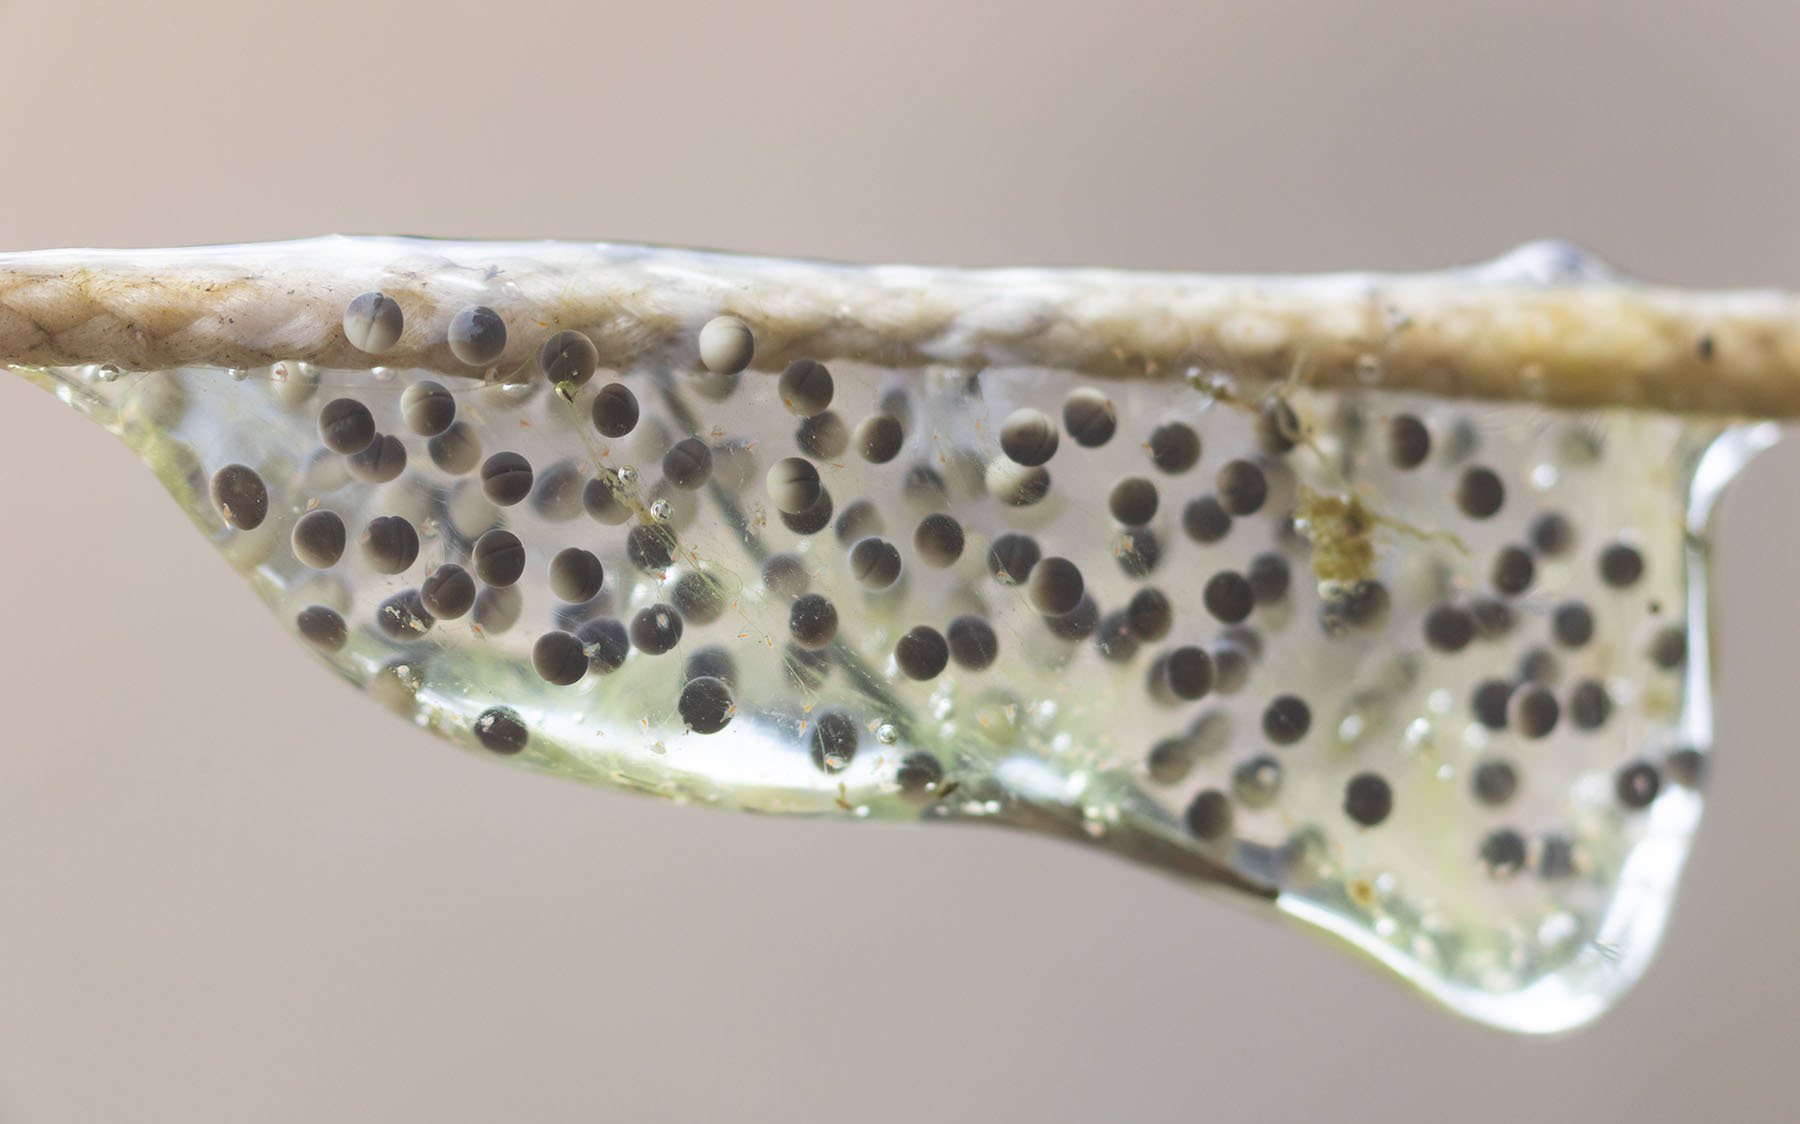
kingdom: Animalia
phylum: Chordata
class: Amphibia
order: Anura
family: Hylidae
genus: Pseudacris
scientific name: Pseudacris regilla
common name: Pacific chorus frog
